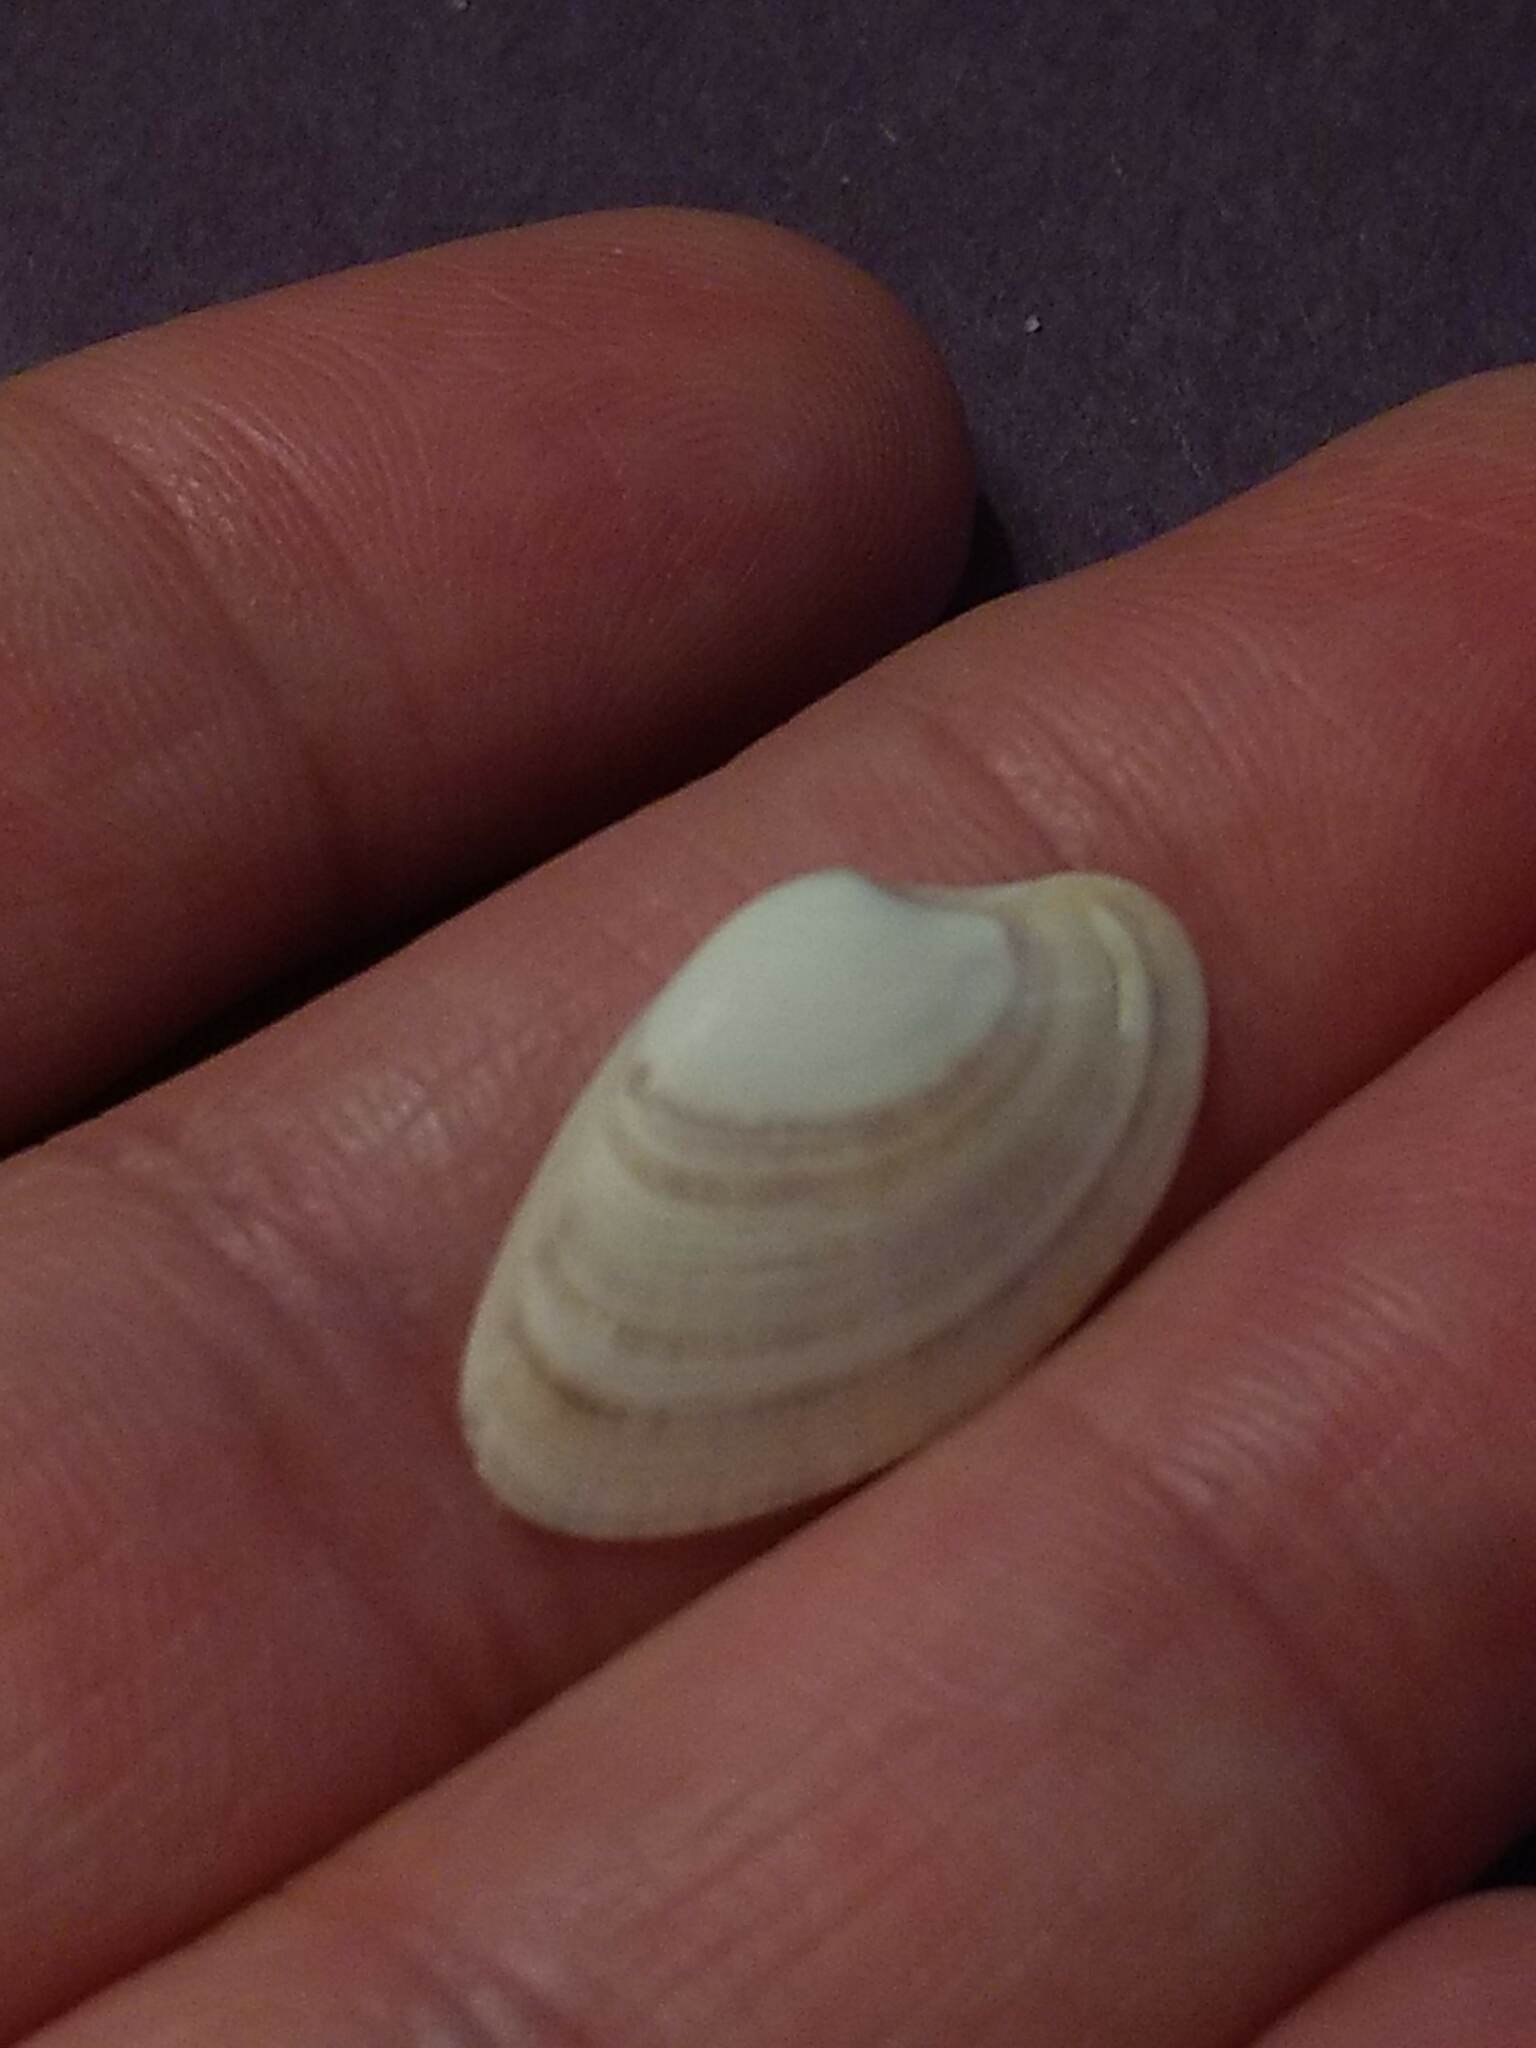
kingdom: Animalia
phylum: Mollusca
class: Bivalvia
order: Venerida
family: Veneridae
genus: Macrocallista
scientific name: Macrocallista nimbosa
